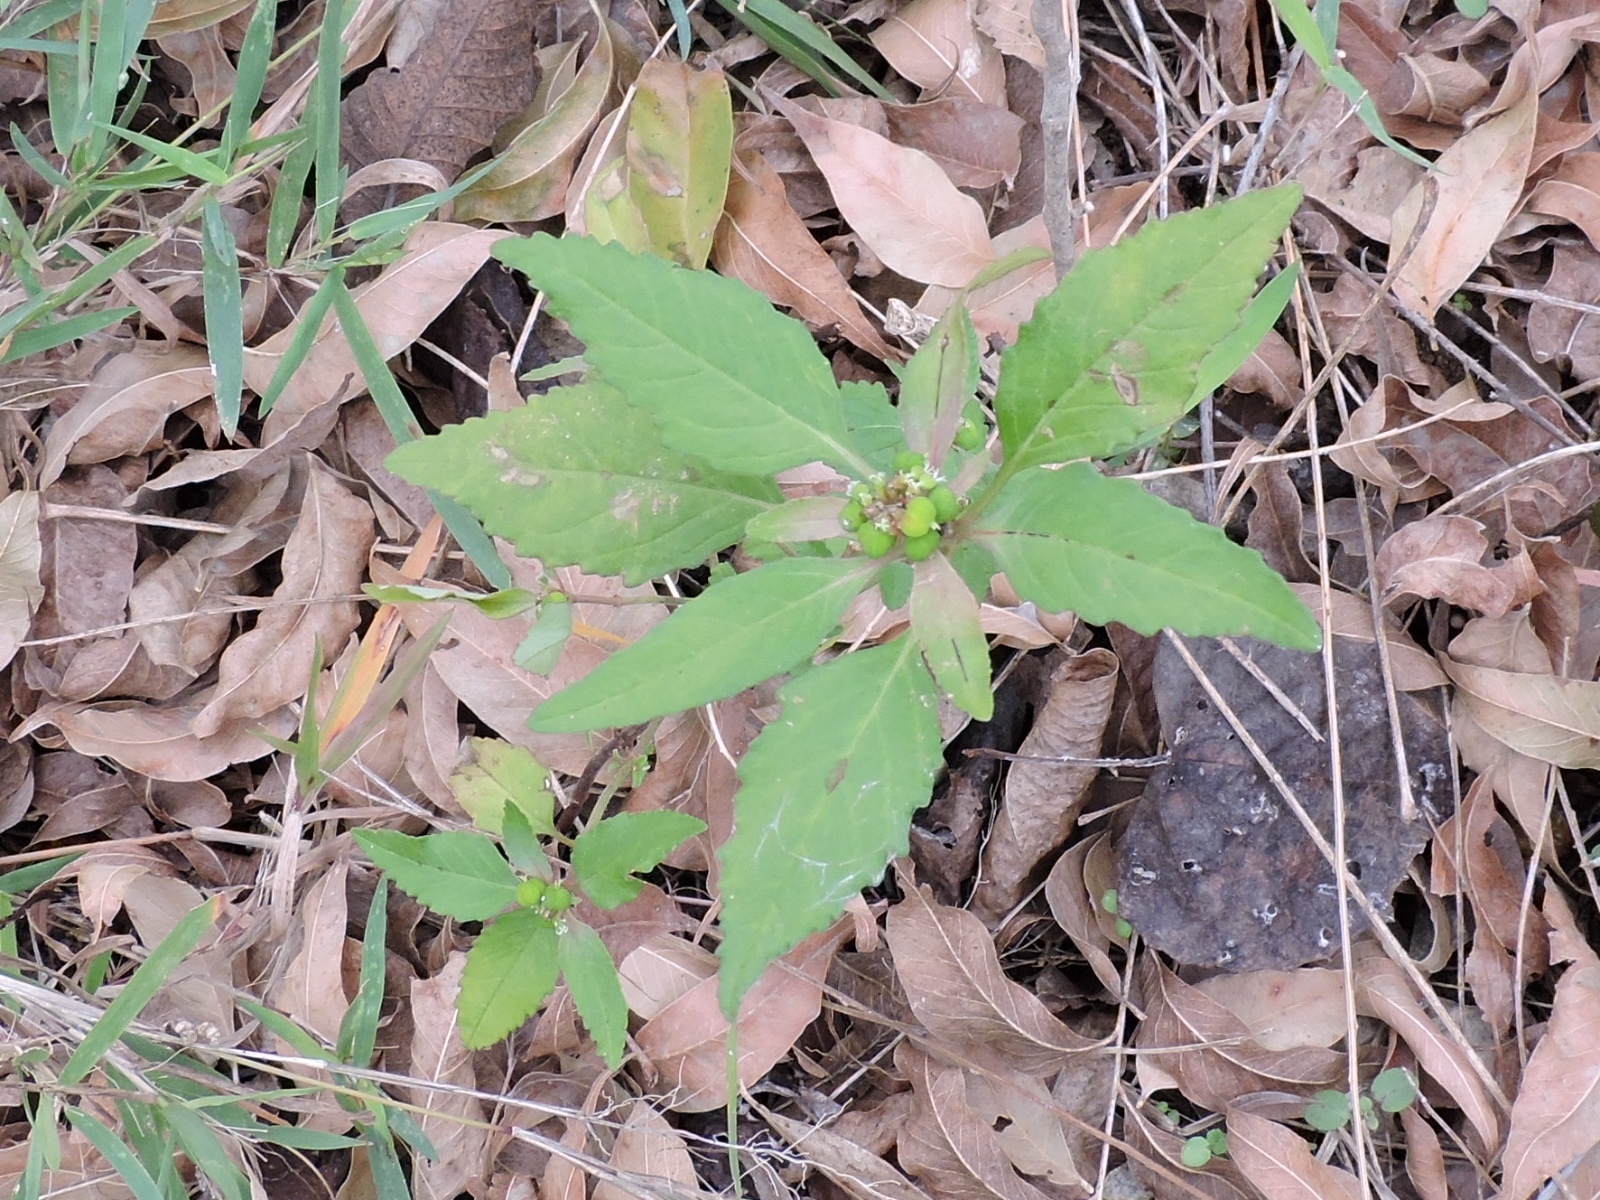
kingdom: Plantae
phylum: Tracheophyta
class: Magnoliopsida
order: Malpighiales
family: Euphorbiaceae
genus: Euphorbia
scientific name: Euphorbia dentata
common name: Dentate spurge
